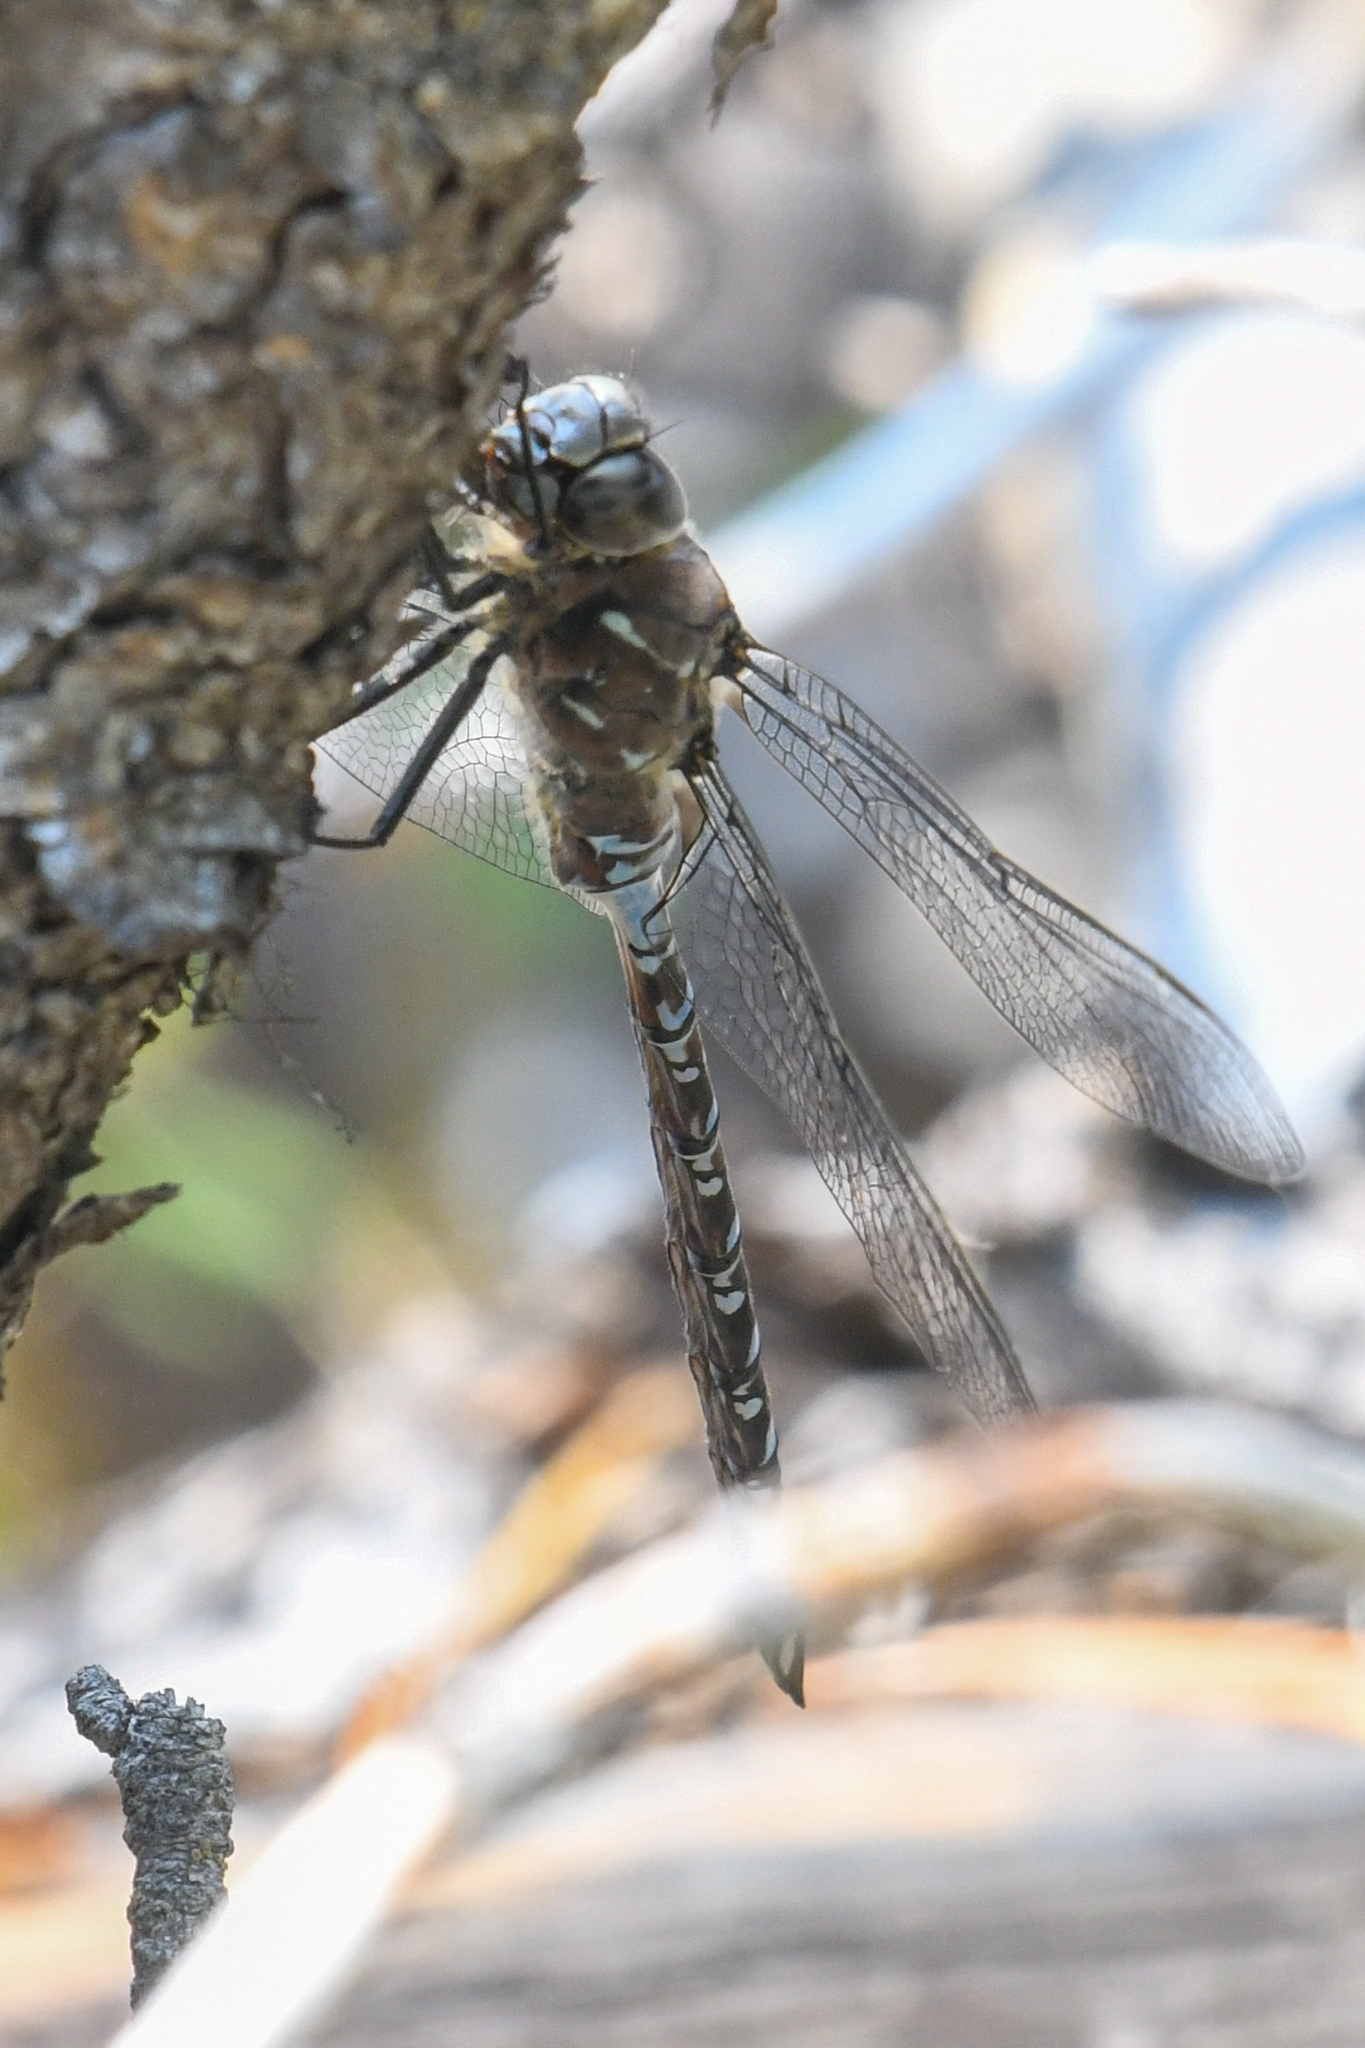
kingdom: Animalia
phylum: Arthropoda
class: Insecta
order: Odonata
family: Aeshnidae
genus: Aeshna
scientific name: Aeshna interrupta
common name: Variable darner
